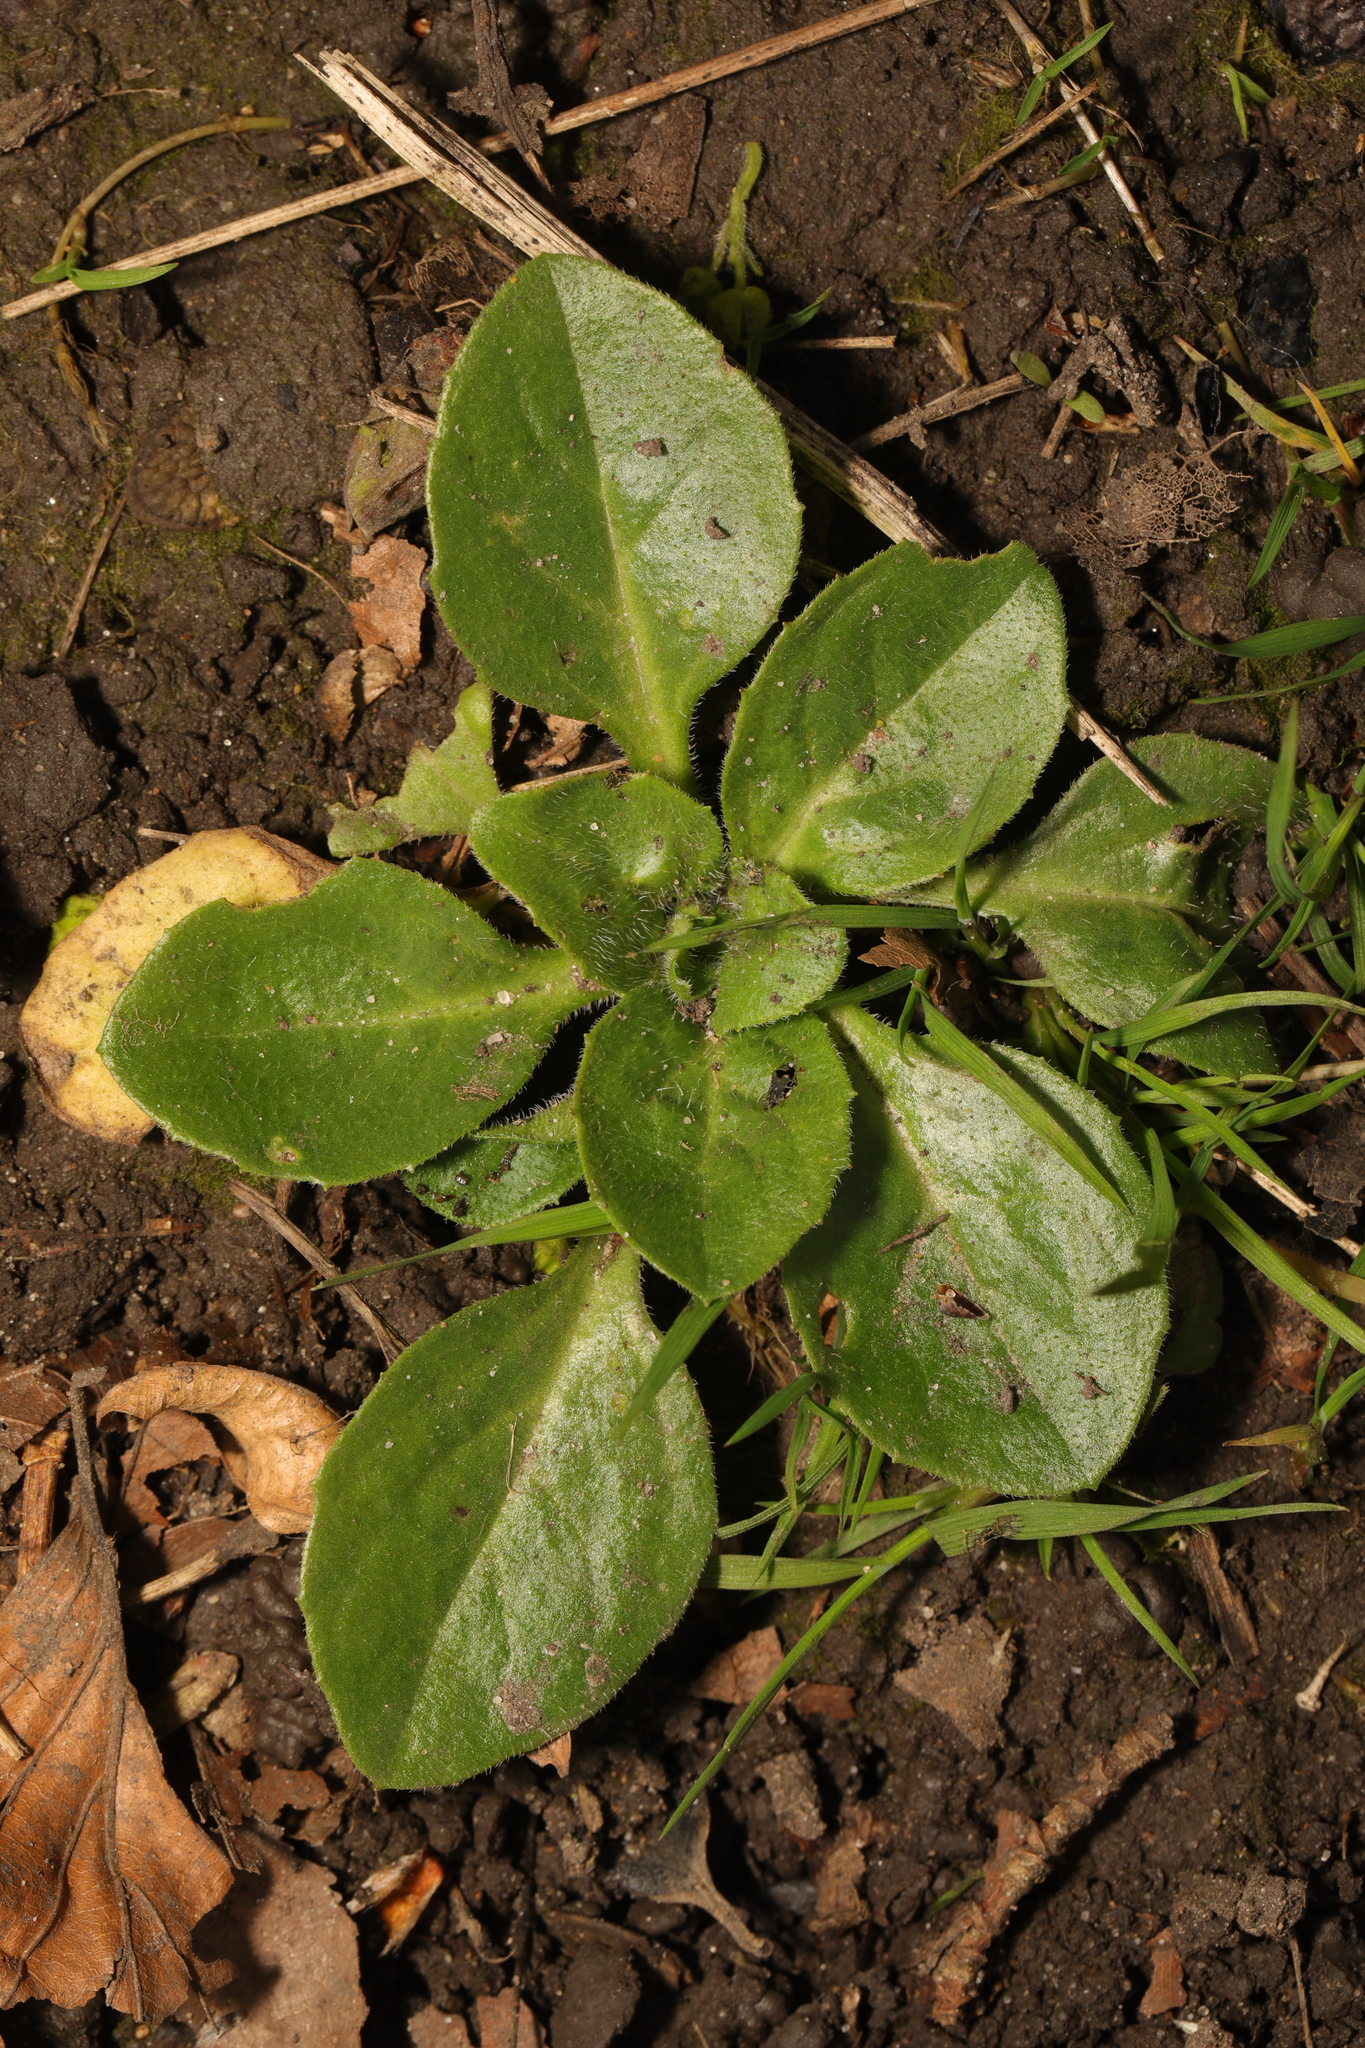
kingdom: Plantae
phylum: Tracheophyta
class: Magnoliopsida
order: Asterales
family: Asteraceae
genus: Bellis
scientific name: Bellis perennis
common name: Lawndaisy
